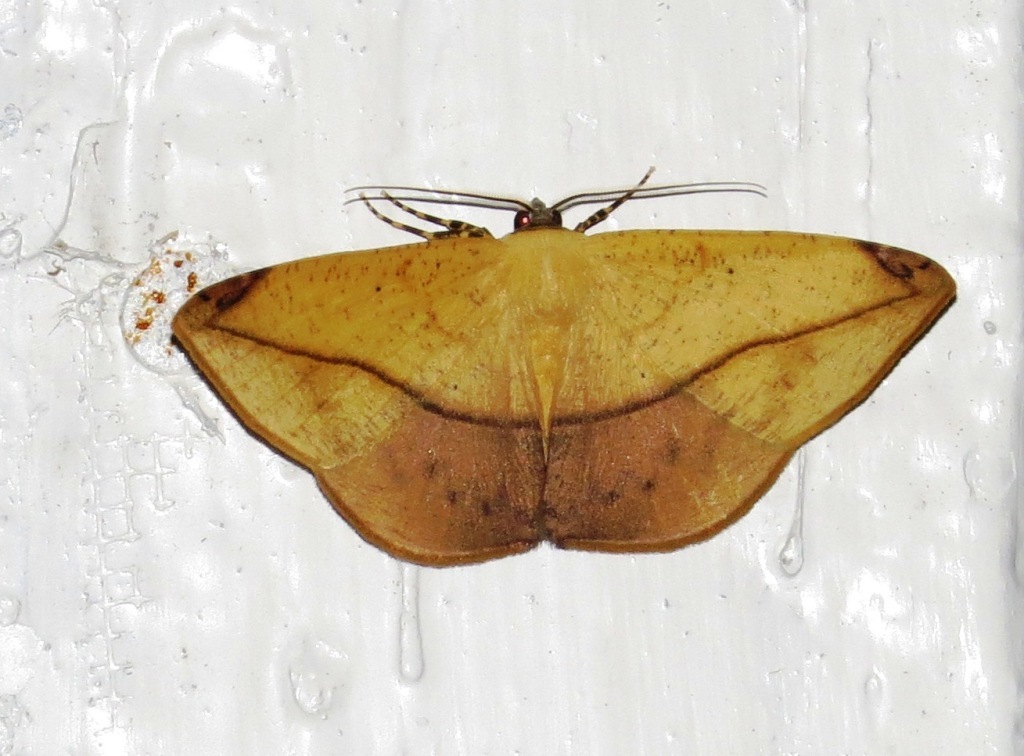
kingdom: Animalia
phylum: Arthropoda
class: Insecta
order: Lepidoptera
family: Geometridae
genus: Herbita
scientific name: Herbita praeditaria
